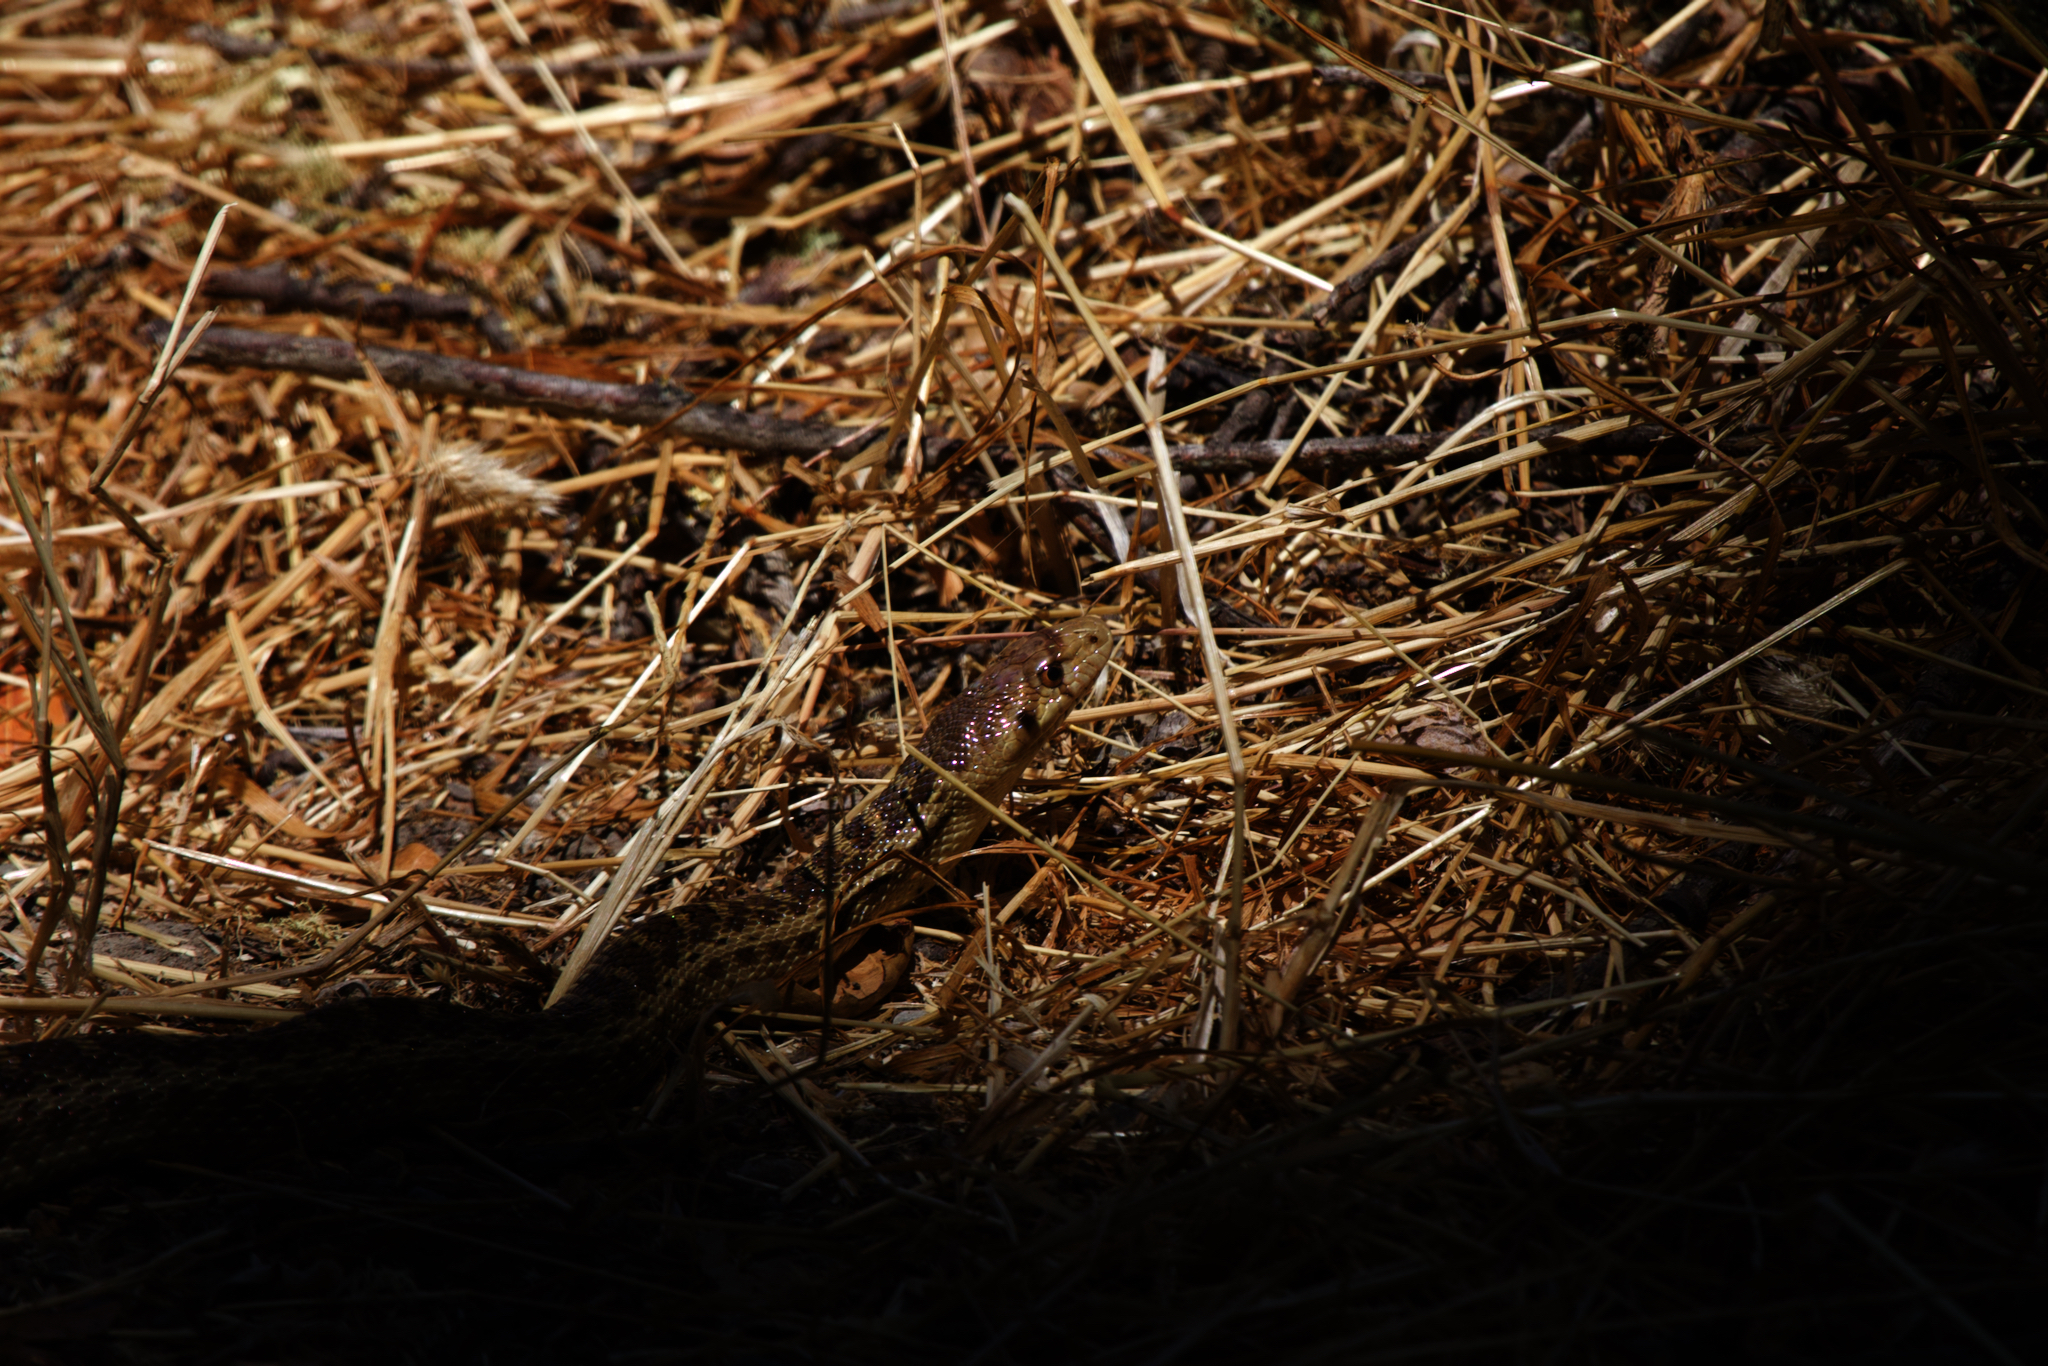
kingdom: Animalia
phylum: Chordata
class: Squamata
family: Colubridae
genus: Pituophis
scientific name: Pituophis catenifer
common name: Gopher snake
